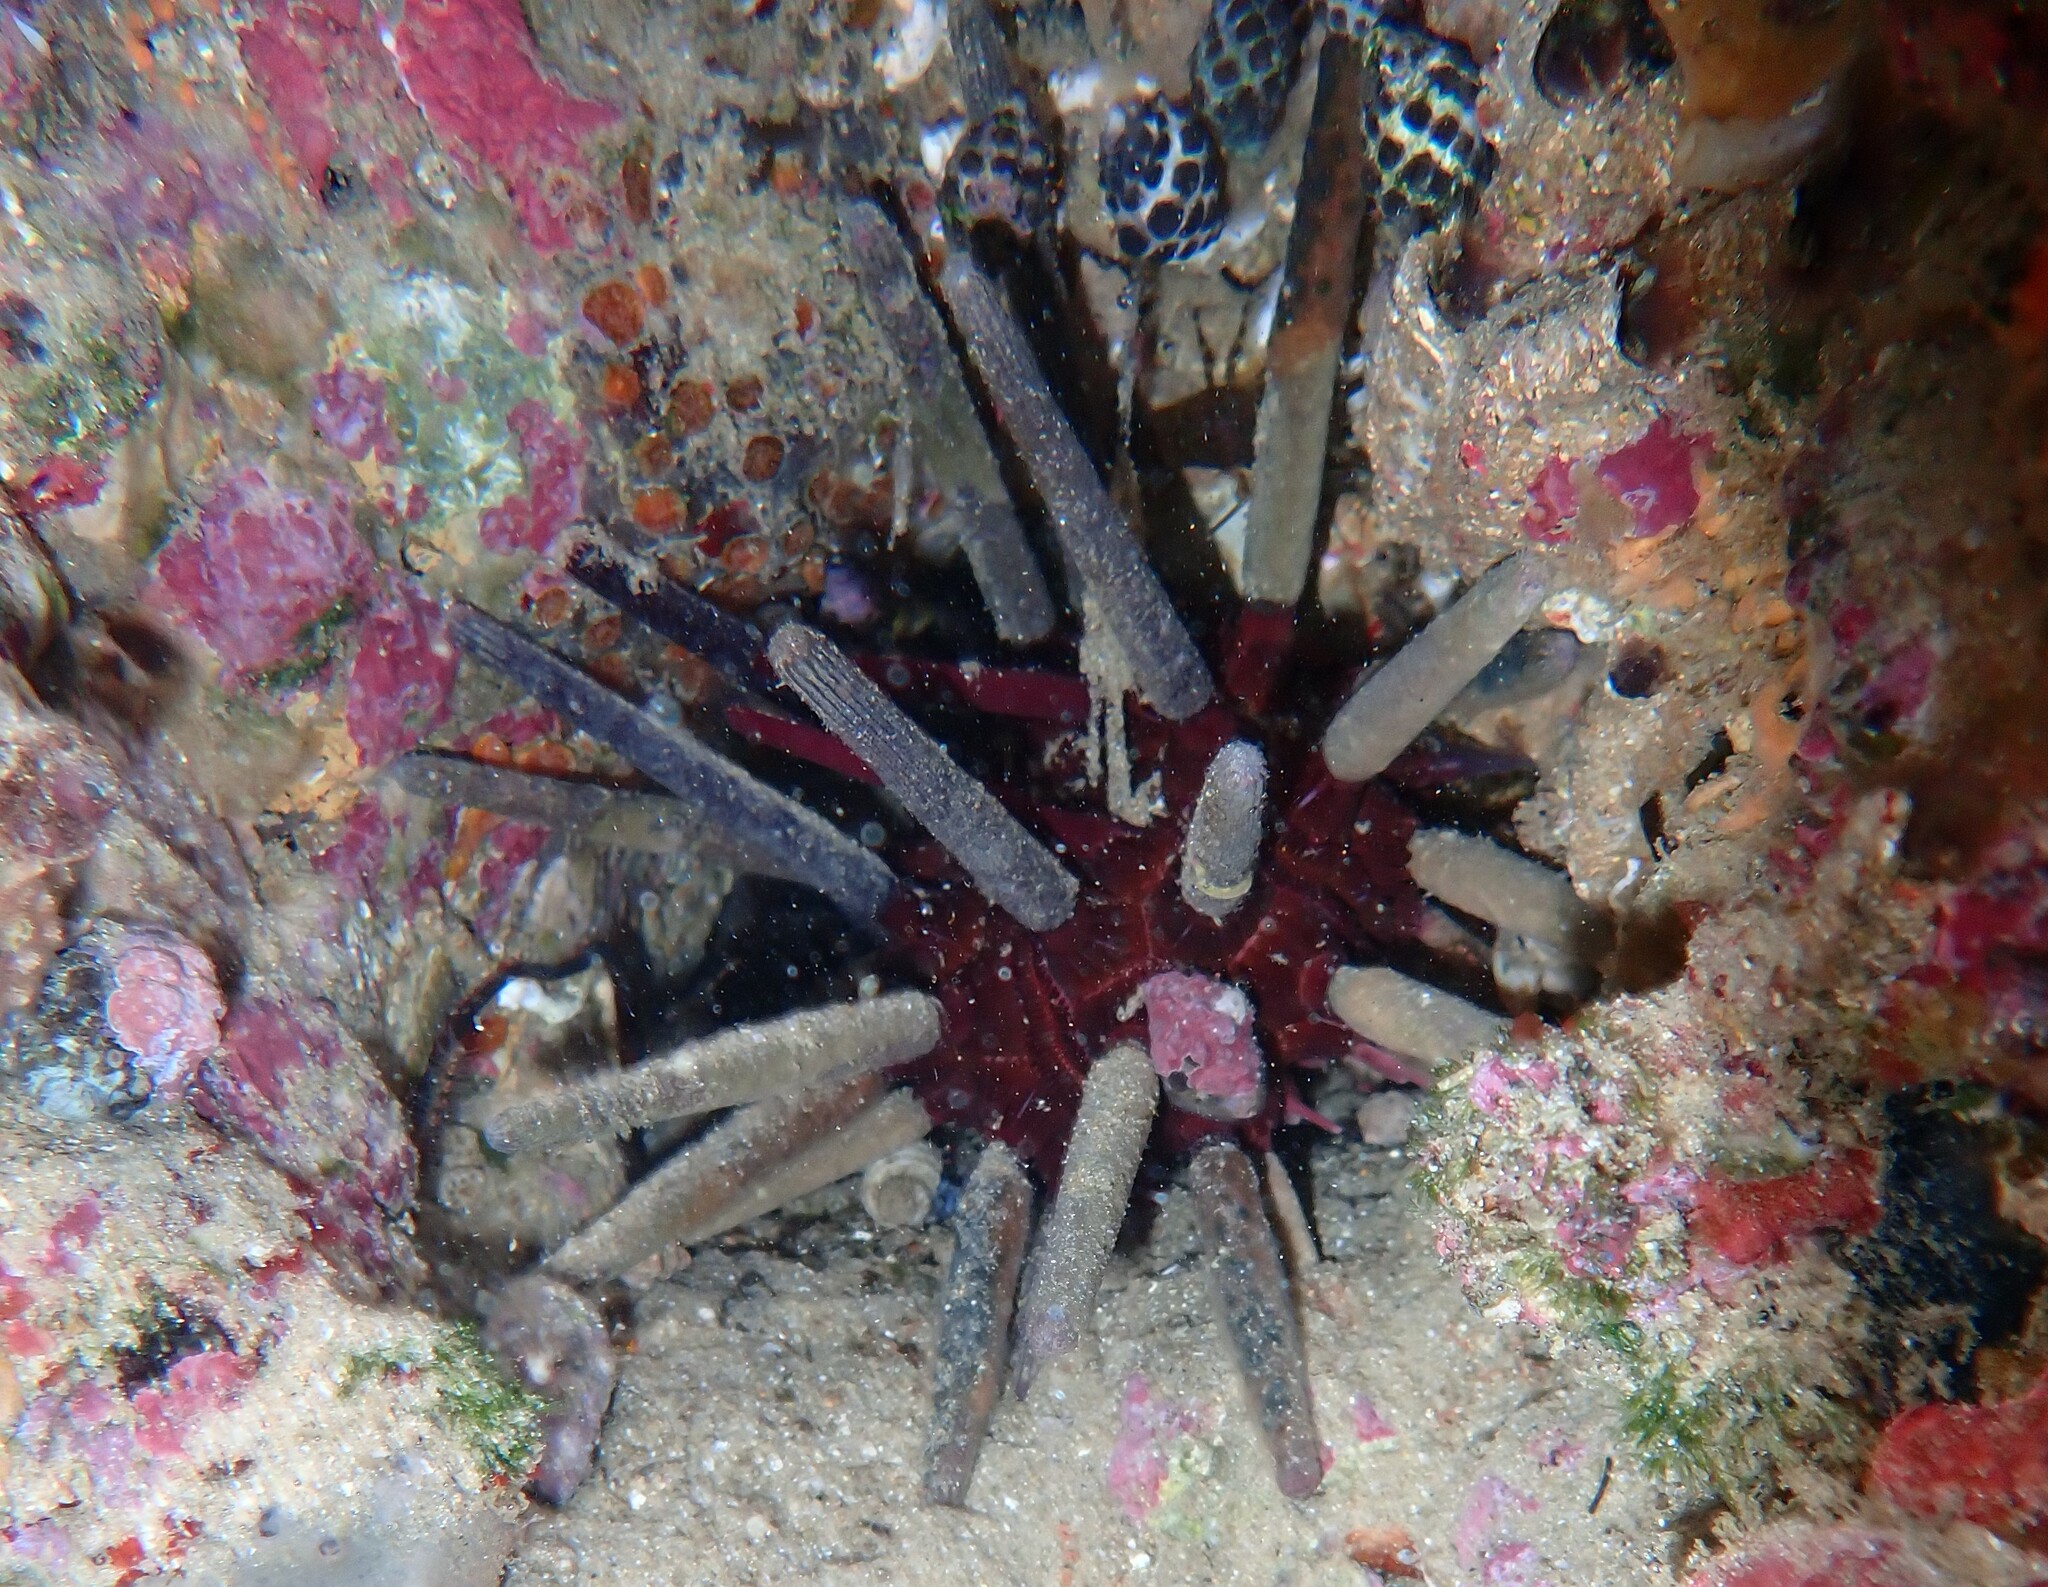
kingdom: Animalia
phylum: Echinodermata
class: Echinoidea
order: Cidaroida
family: Cidaridae
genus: Phyllacanthus
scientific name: Phyllacanthus parvispinus
